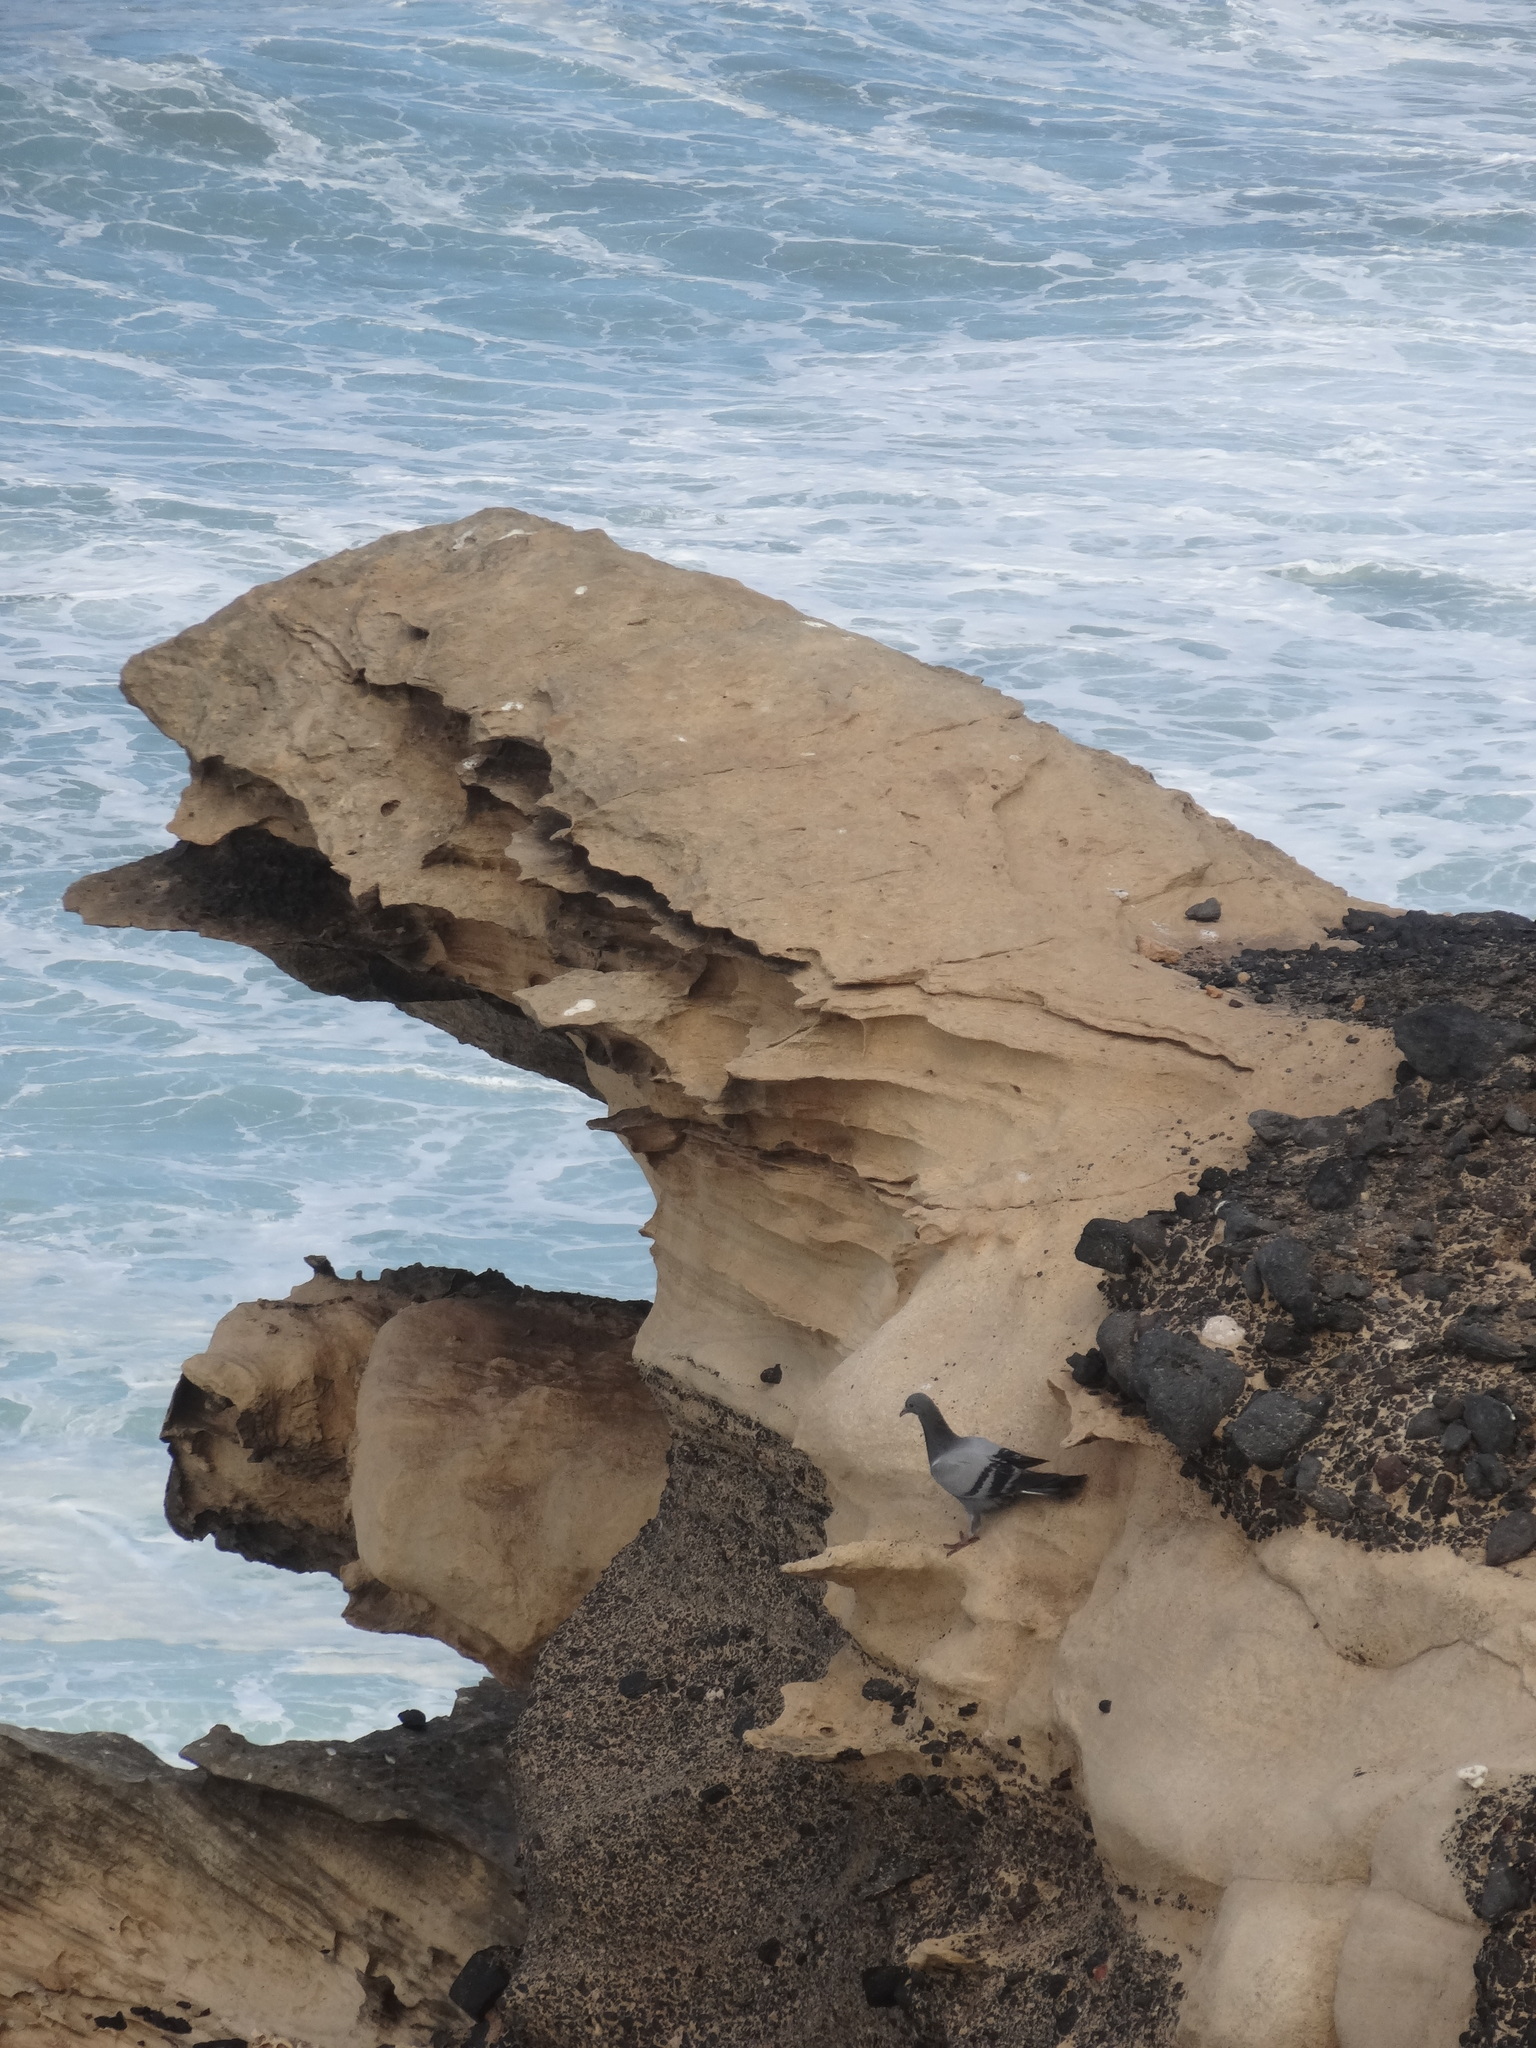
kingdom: Animalia
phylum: Chordata
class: Aves
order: Columbiformes
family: Columbidae
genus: Columba
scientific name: Columba livia
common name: Rock pigeon
